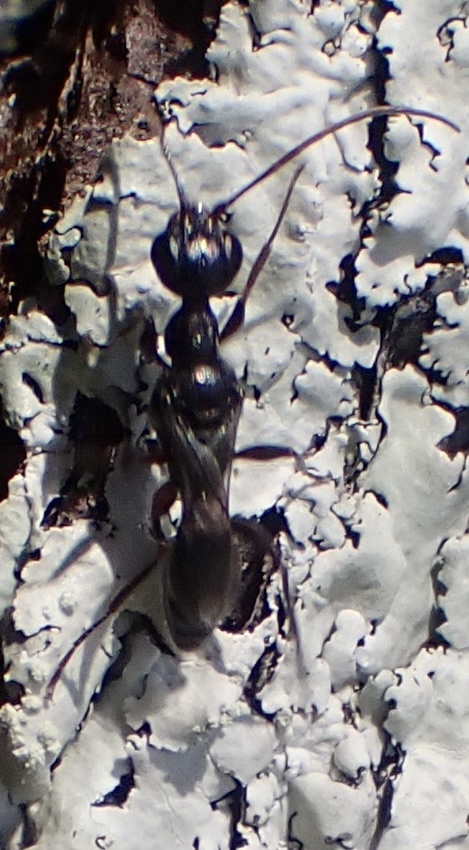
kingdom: Animalia
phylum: Arthropoda
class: Insecta
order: Hymenoptera
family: Ampulicidae
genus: Ampulex
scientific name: Ampulex canaliculata
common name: Cockroach wasp
